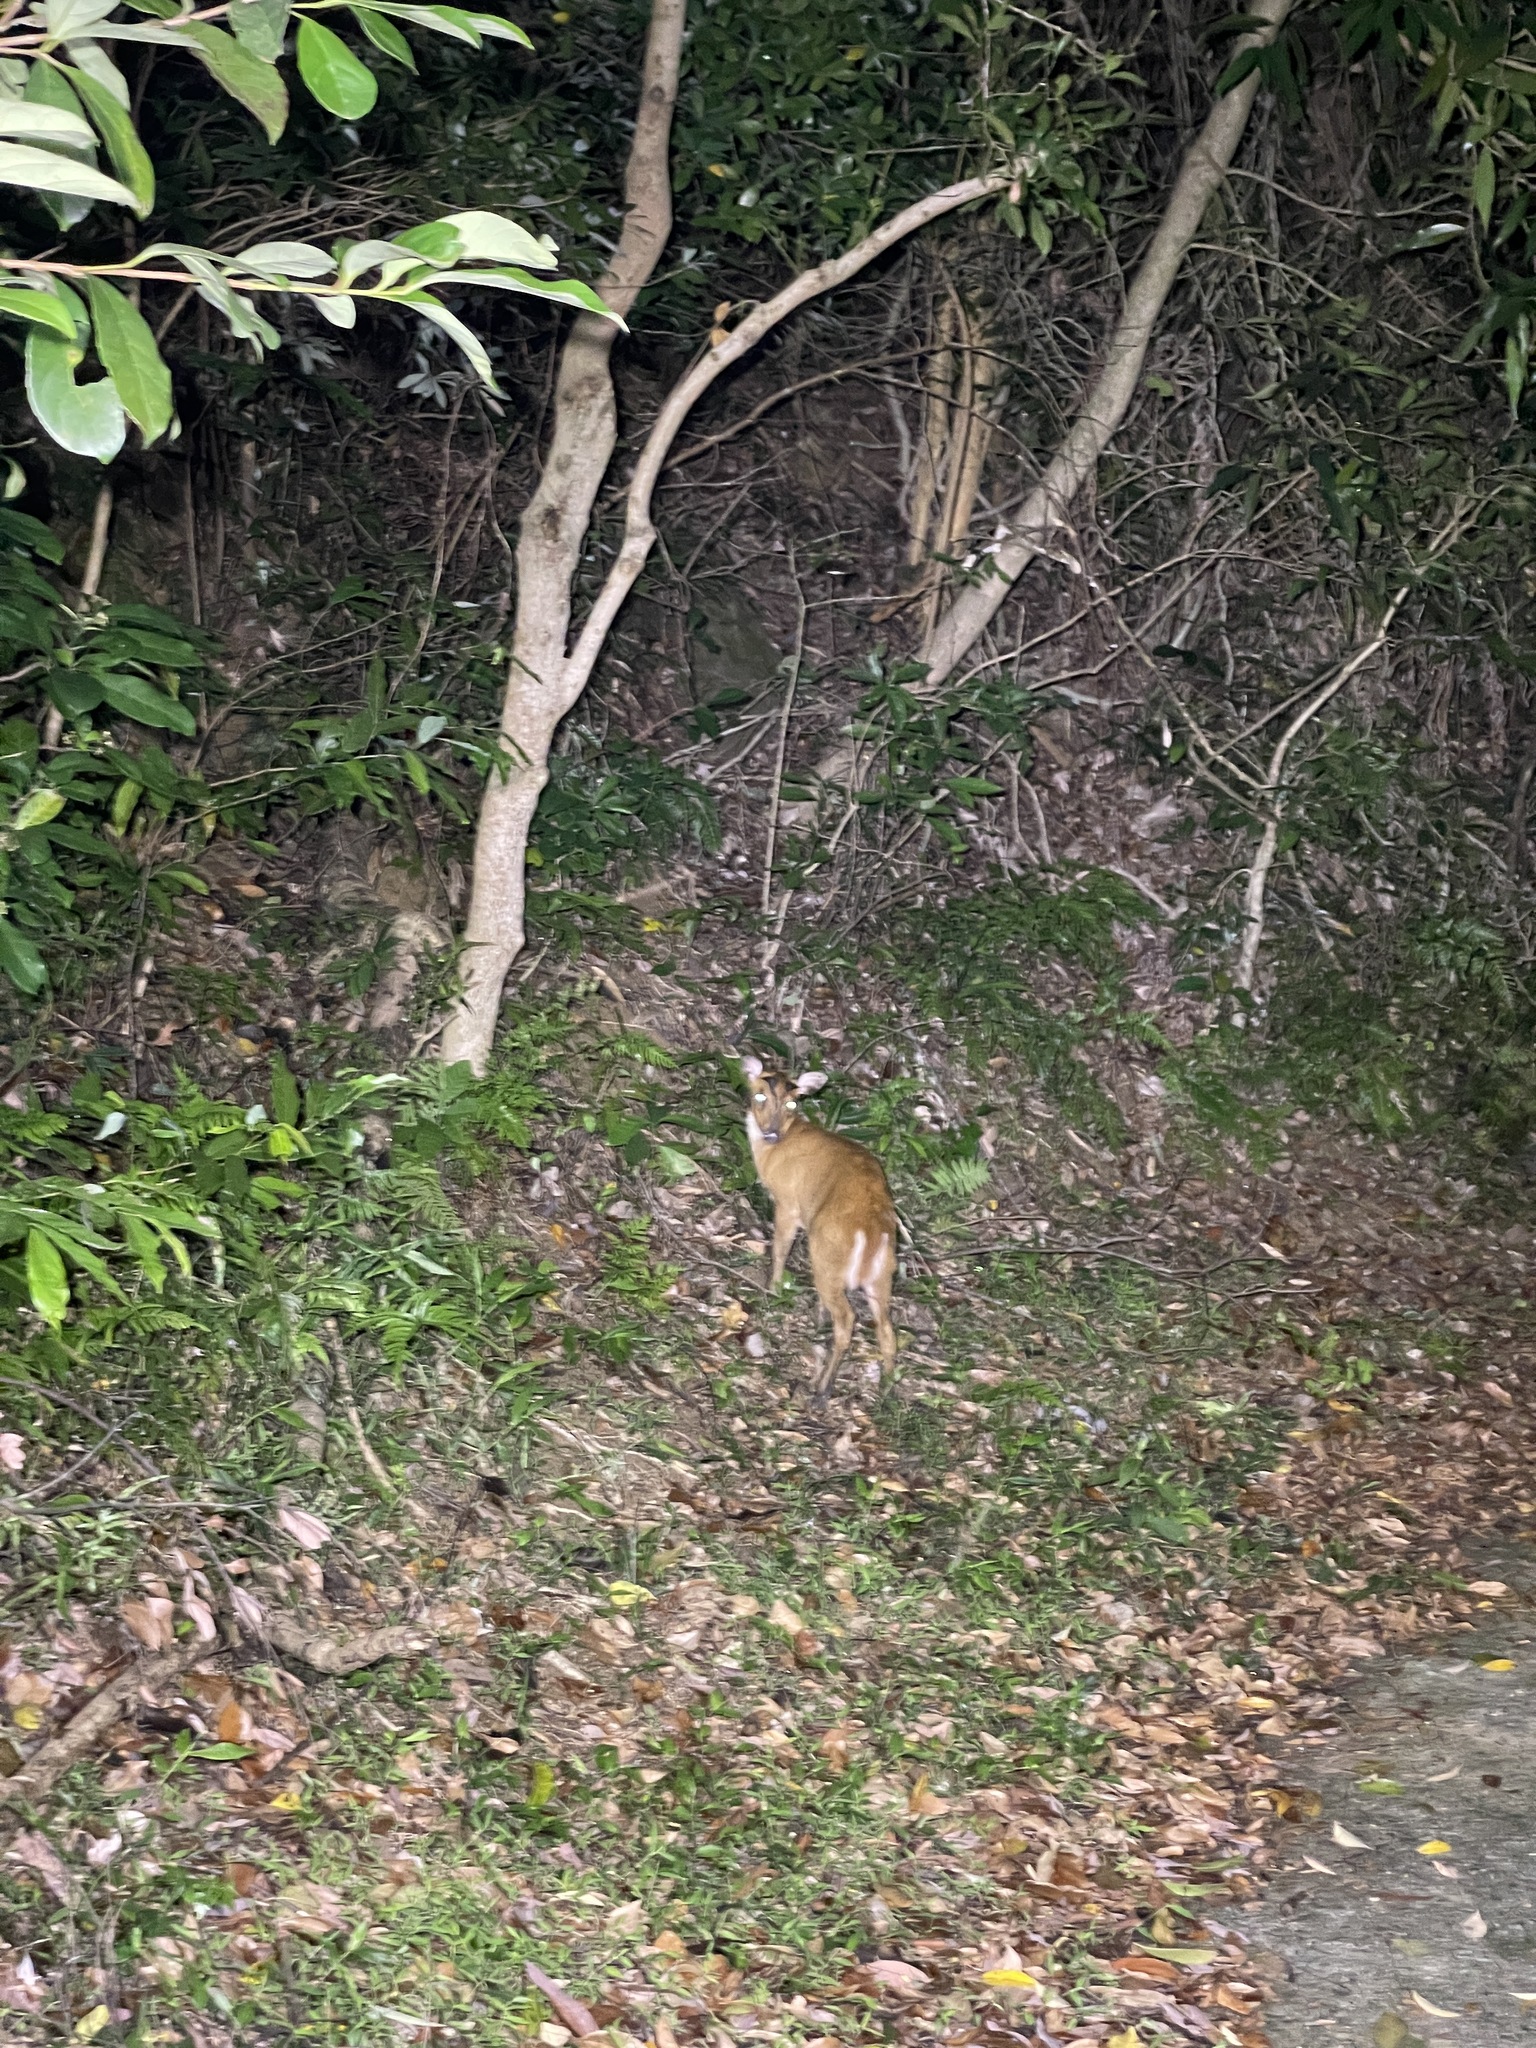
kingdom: Animalia
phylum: Chordata
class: Mammalia
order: Artiodactyla
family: Cervidae
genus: Muntiacus
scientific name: Muntiacus muntjak
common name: Indian muntjac
